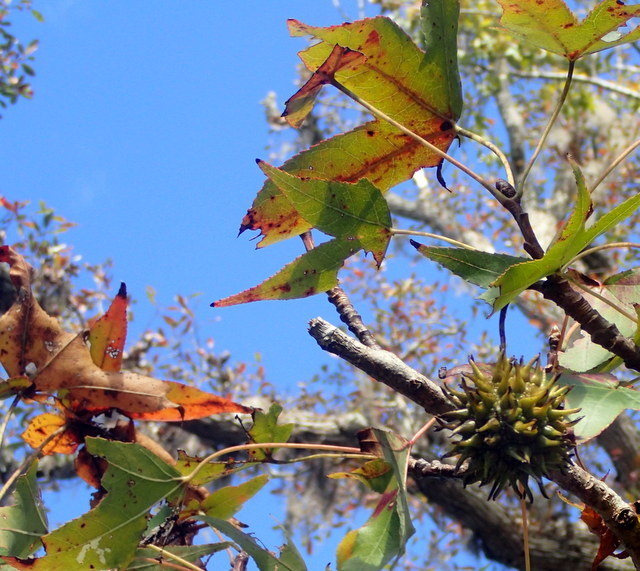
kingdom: Plantae
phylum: Tracheophyta
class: Magnoliopsida
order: Saxifragales
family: Altingiaceae
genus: Liquidambar
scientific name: Liquidambar styraciflua
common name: Sweet gum
